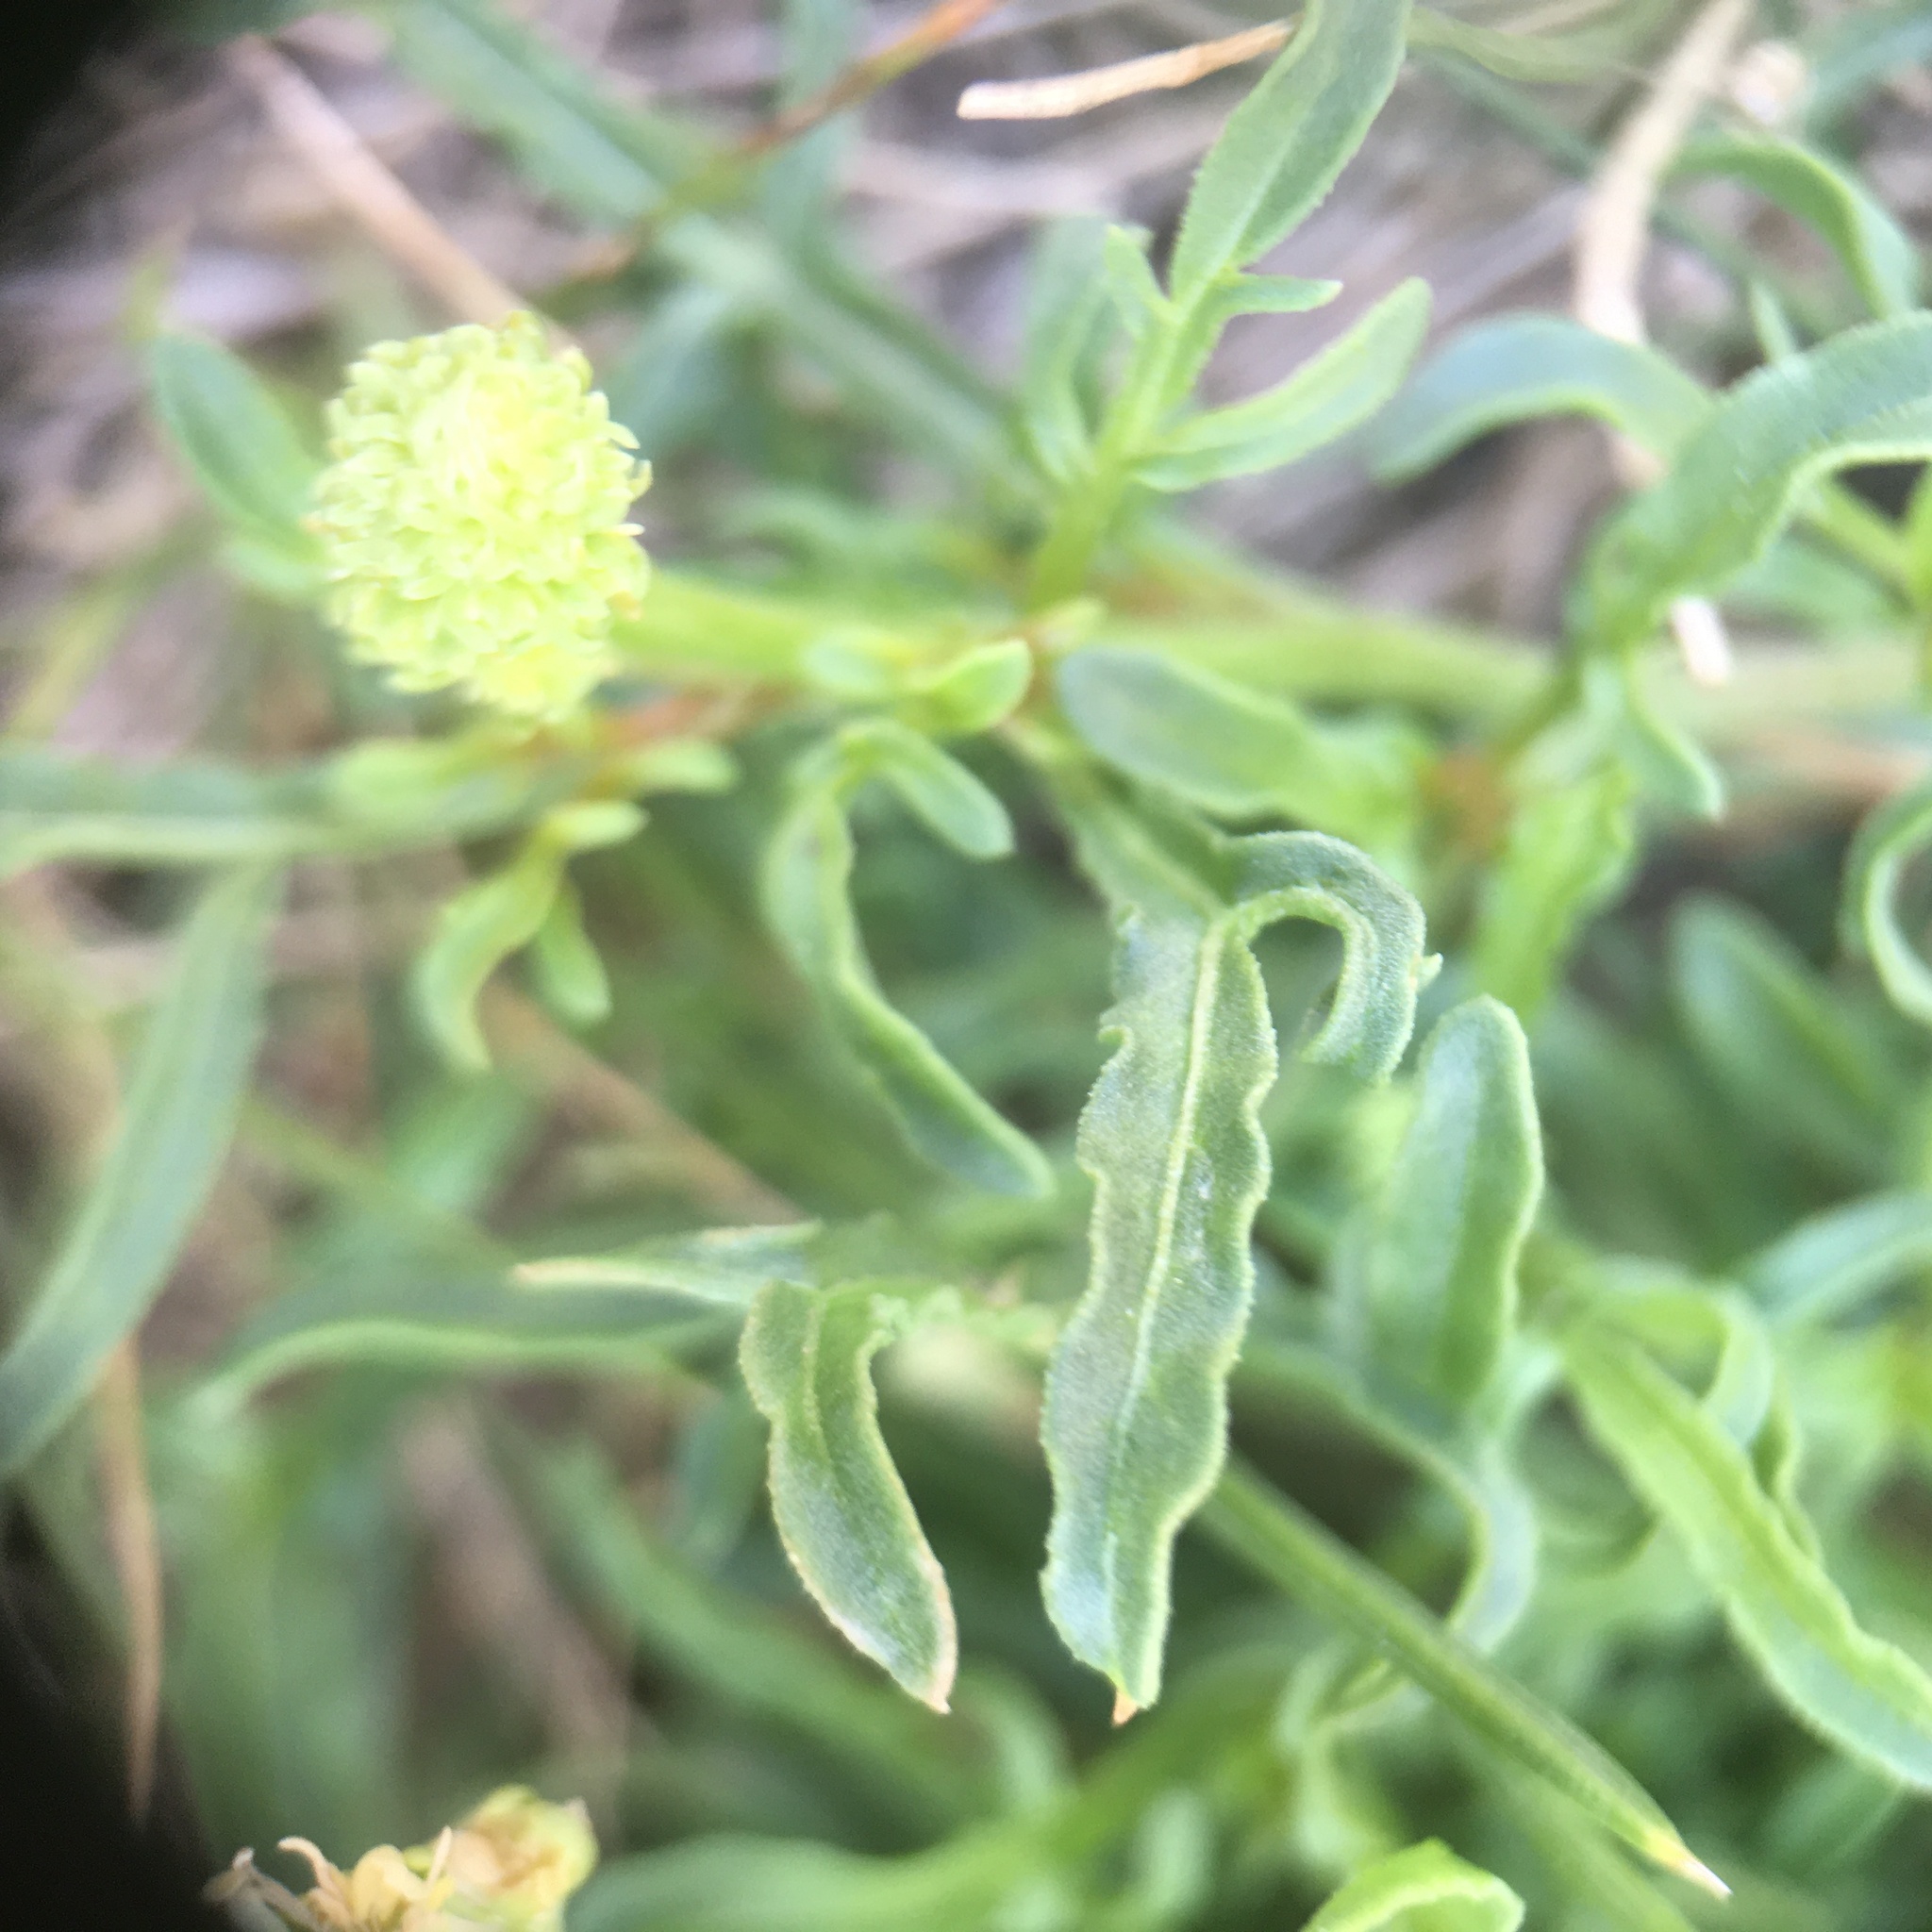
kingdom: Plantae
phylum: Tracheophyta
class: Magnoliopsida
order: Brassicales
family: Resedaceae
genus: Reseda
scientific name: Reseda lutea
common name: Wild mignonette
